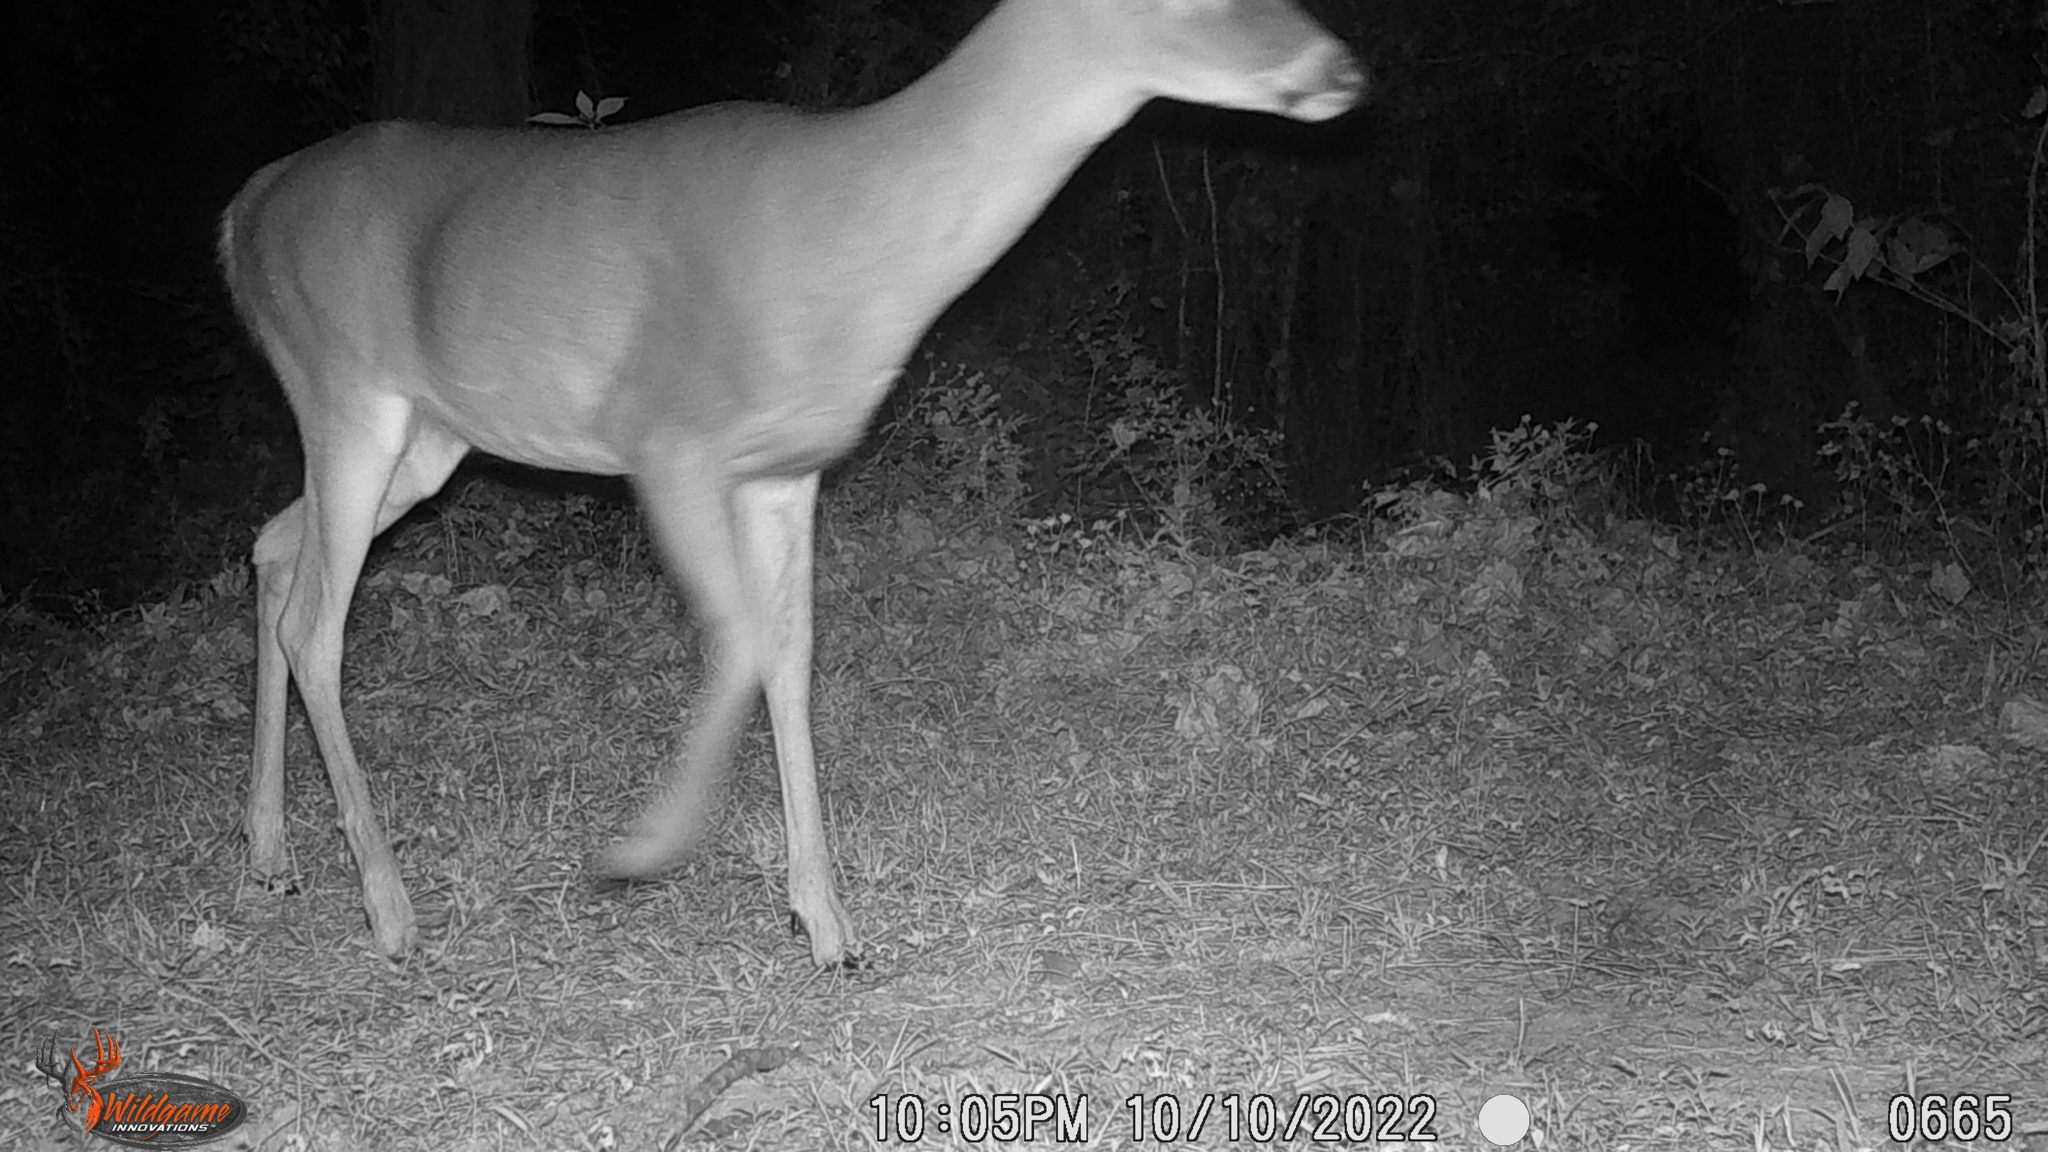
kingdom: Animalia
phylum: Chordata
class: Mammalia
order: Artiodactyla
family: Cervidae
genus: Odocoileus
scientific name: Odocoileus virginianus
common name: White-tailed deer
